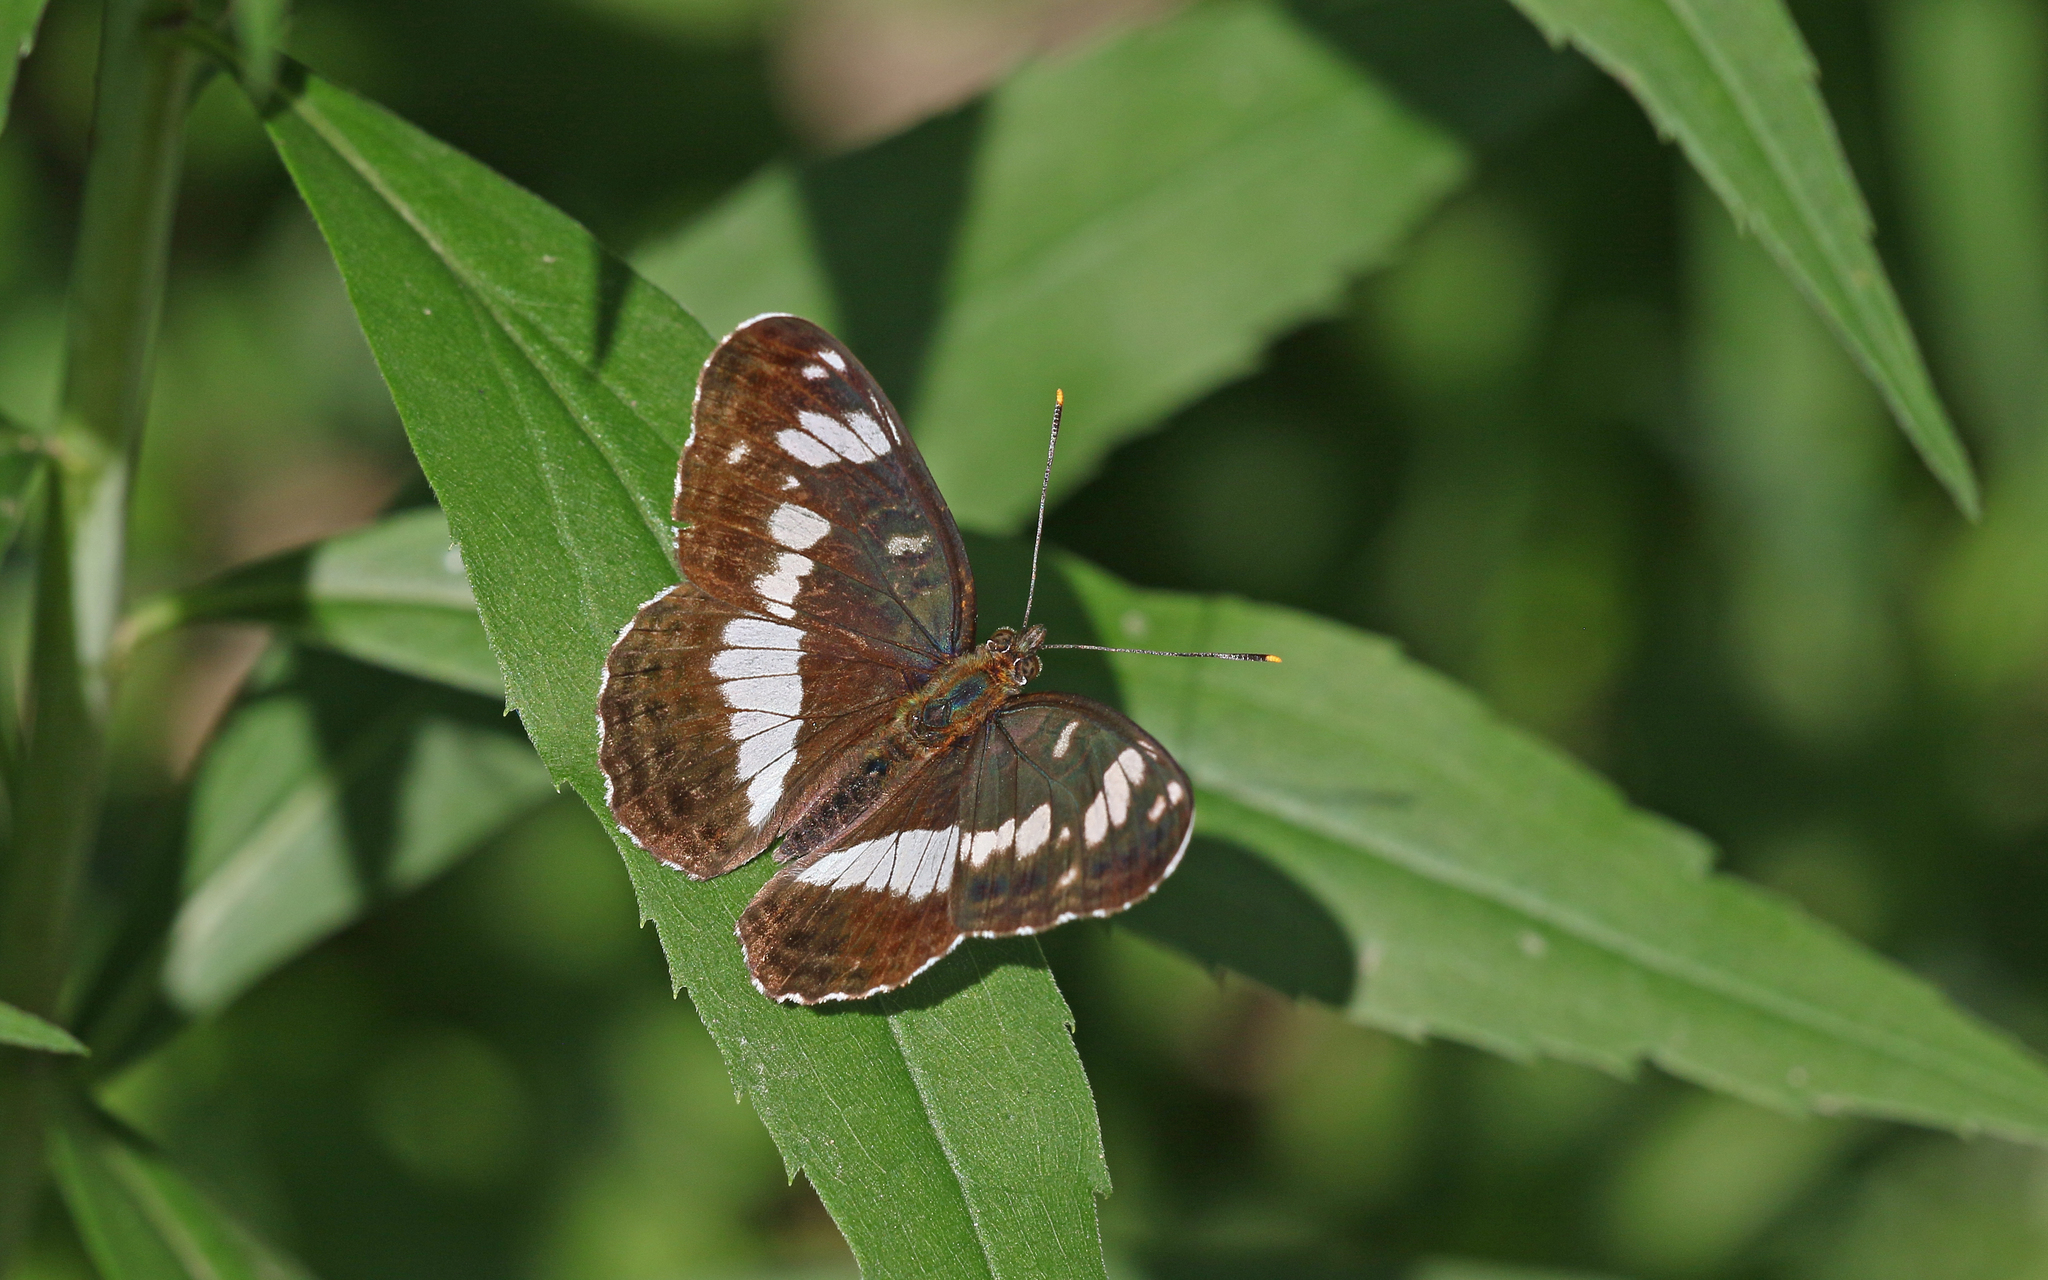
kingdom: Animalia
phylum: Arthropoda
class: Insecta
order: Lepidoptera
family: Nymphalidae
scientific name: Nymphalidae
